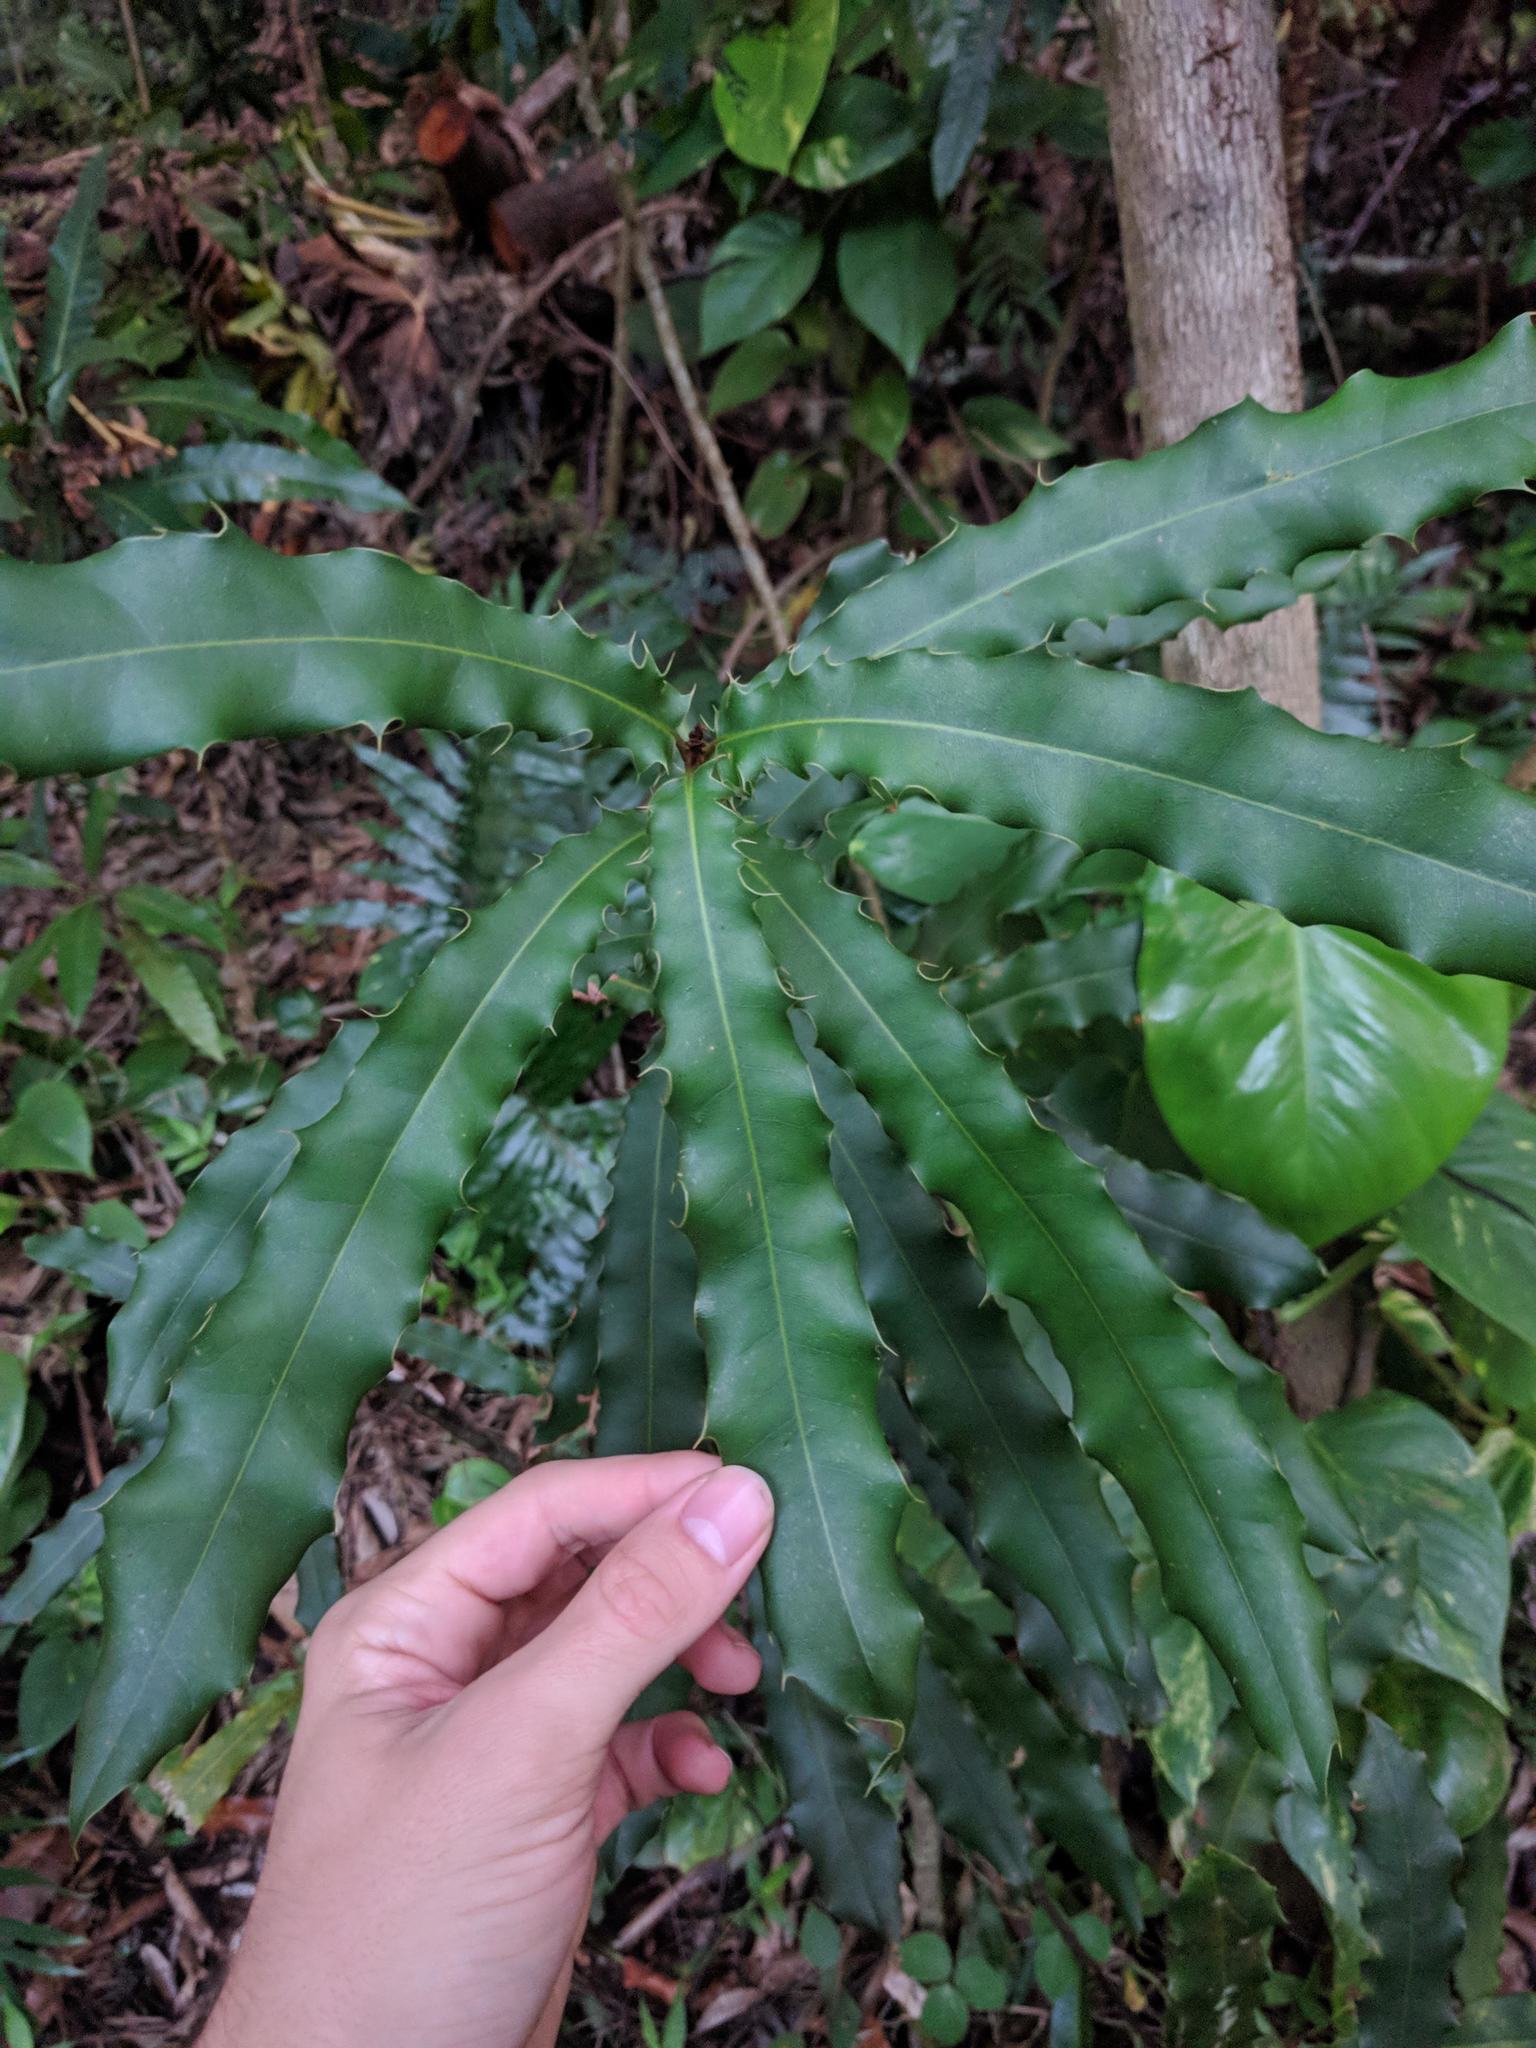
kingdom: Plantae
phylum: Tracheophyta
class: Magnoliopsida
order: Proteales
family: Proteaceae
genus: Macadamia
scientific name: Macadamia integrifolia
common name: Macadamia
